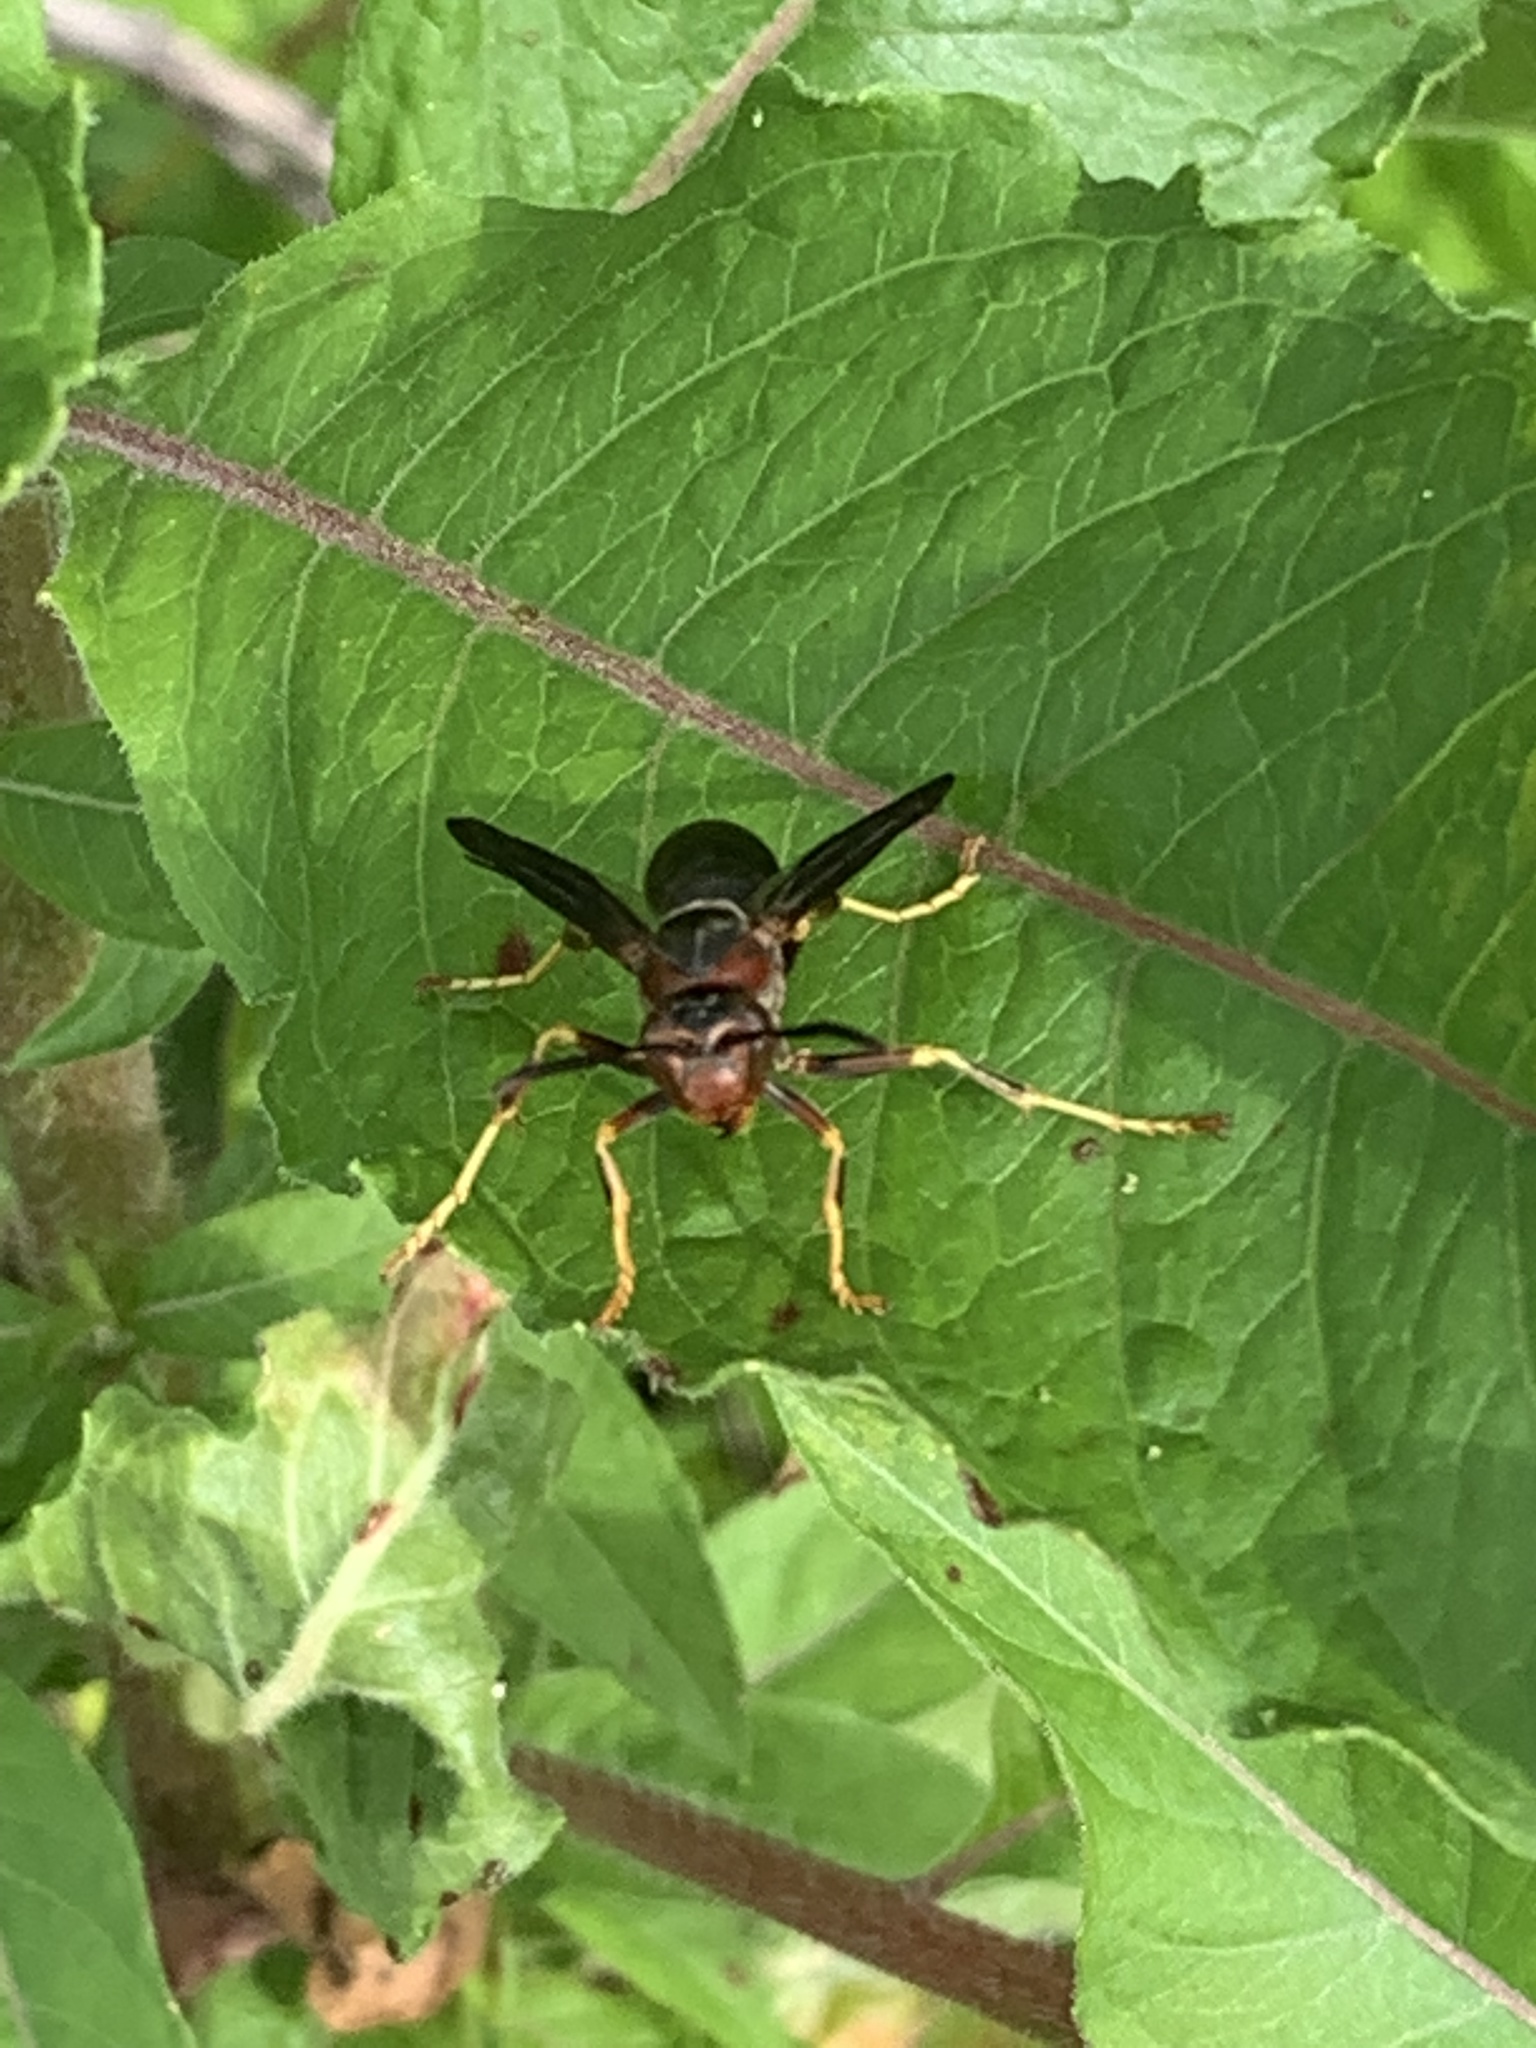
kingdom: Animalia
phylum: Arthropoda
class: Insecta
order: Hymenoptera
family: Vespidae
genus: Fuscopolistes
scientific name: Fuscopolistes
